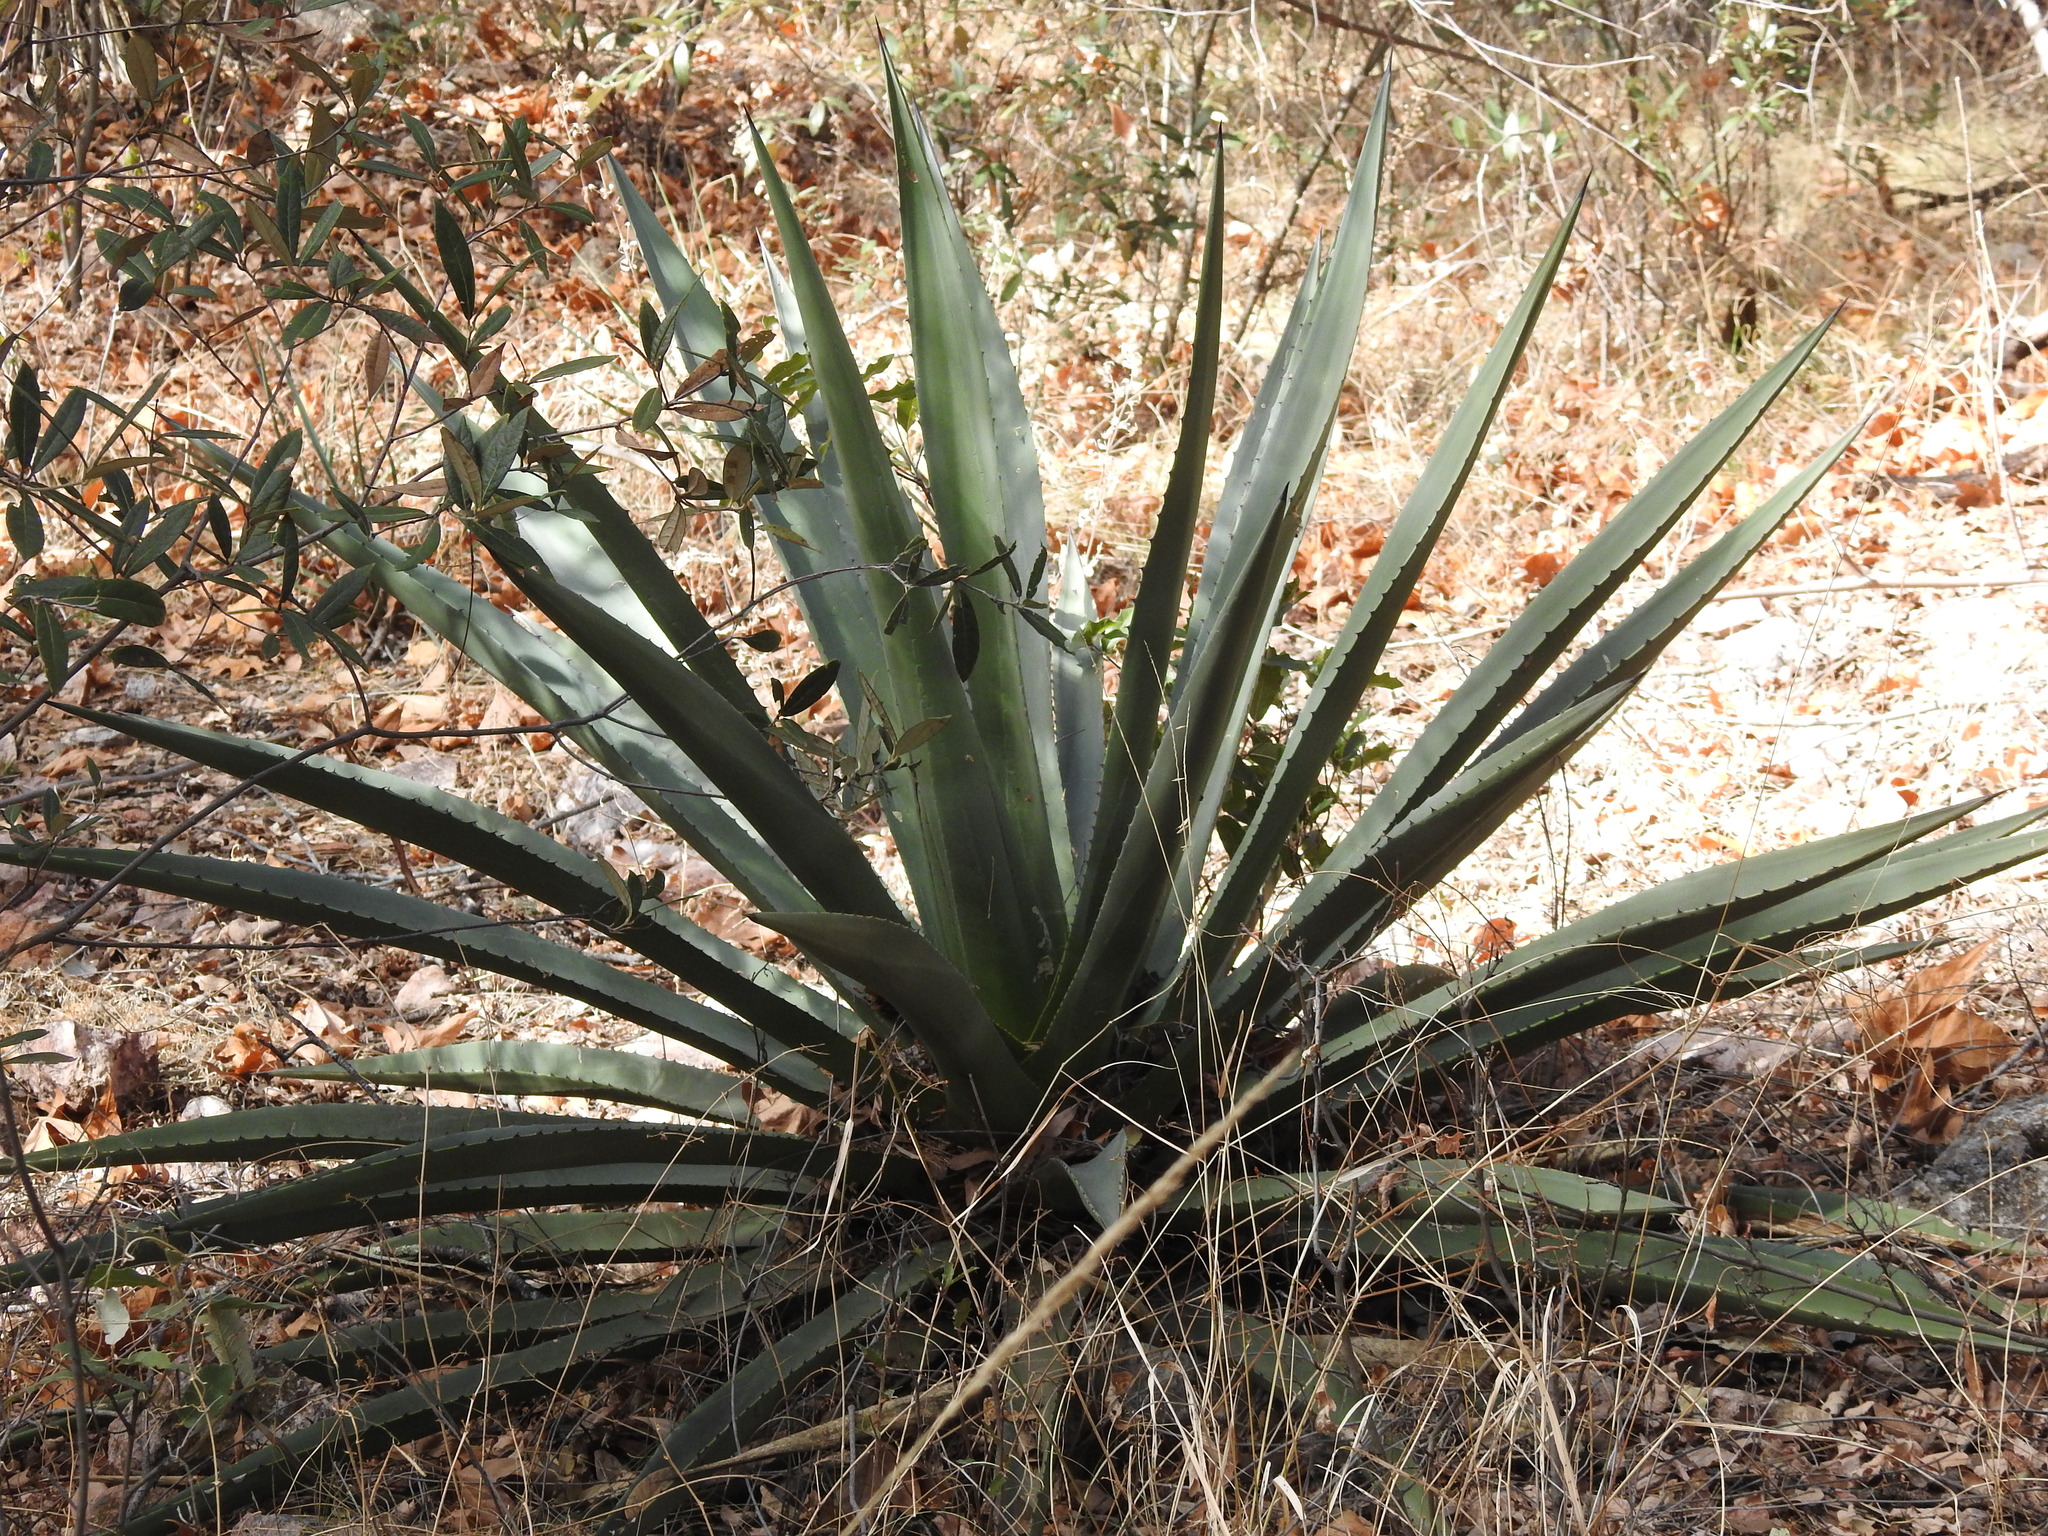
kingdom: Plantae
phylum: Tracheophyta
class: Liliopsida
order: Asparagales
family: Asparagaceae
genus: Agave
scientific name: Agave palmeri
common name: Palmer agave
